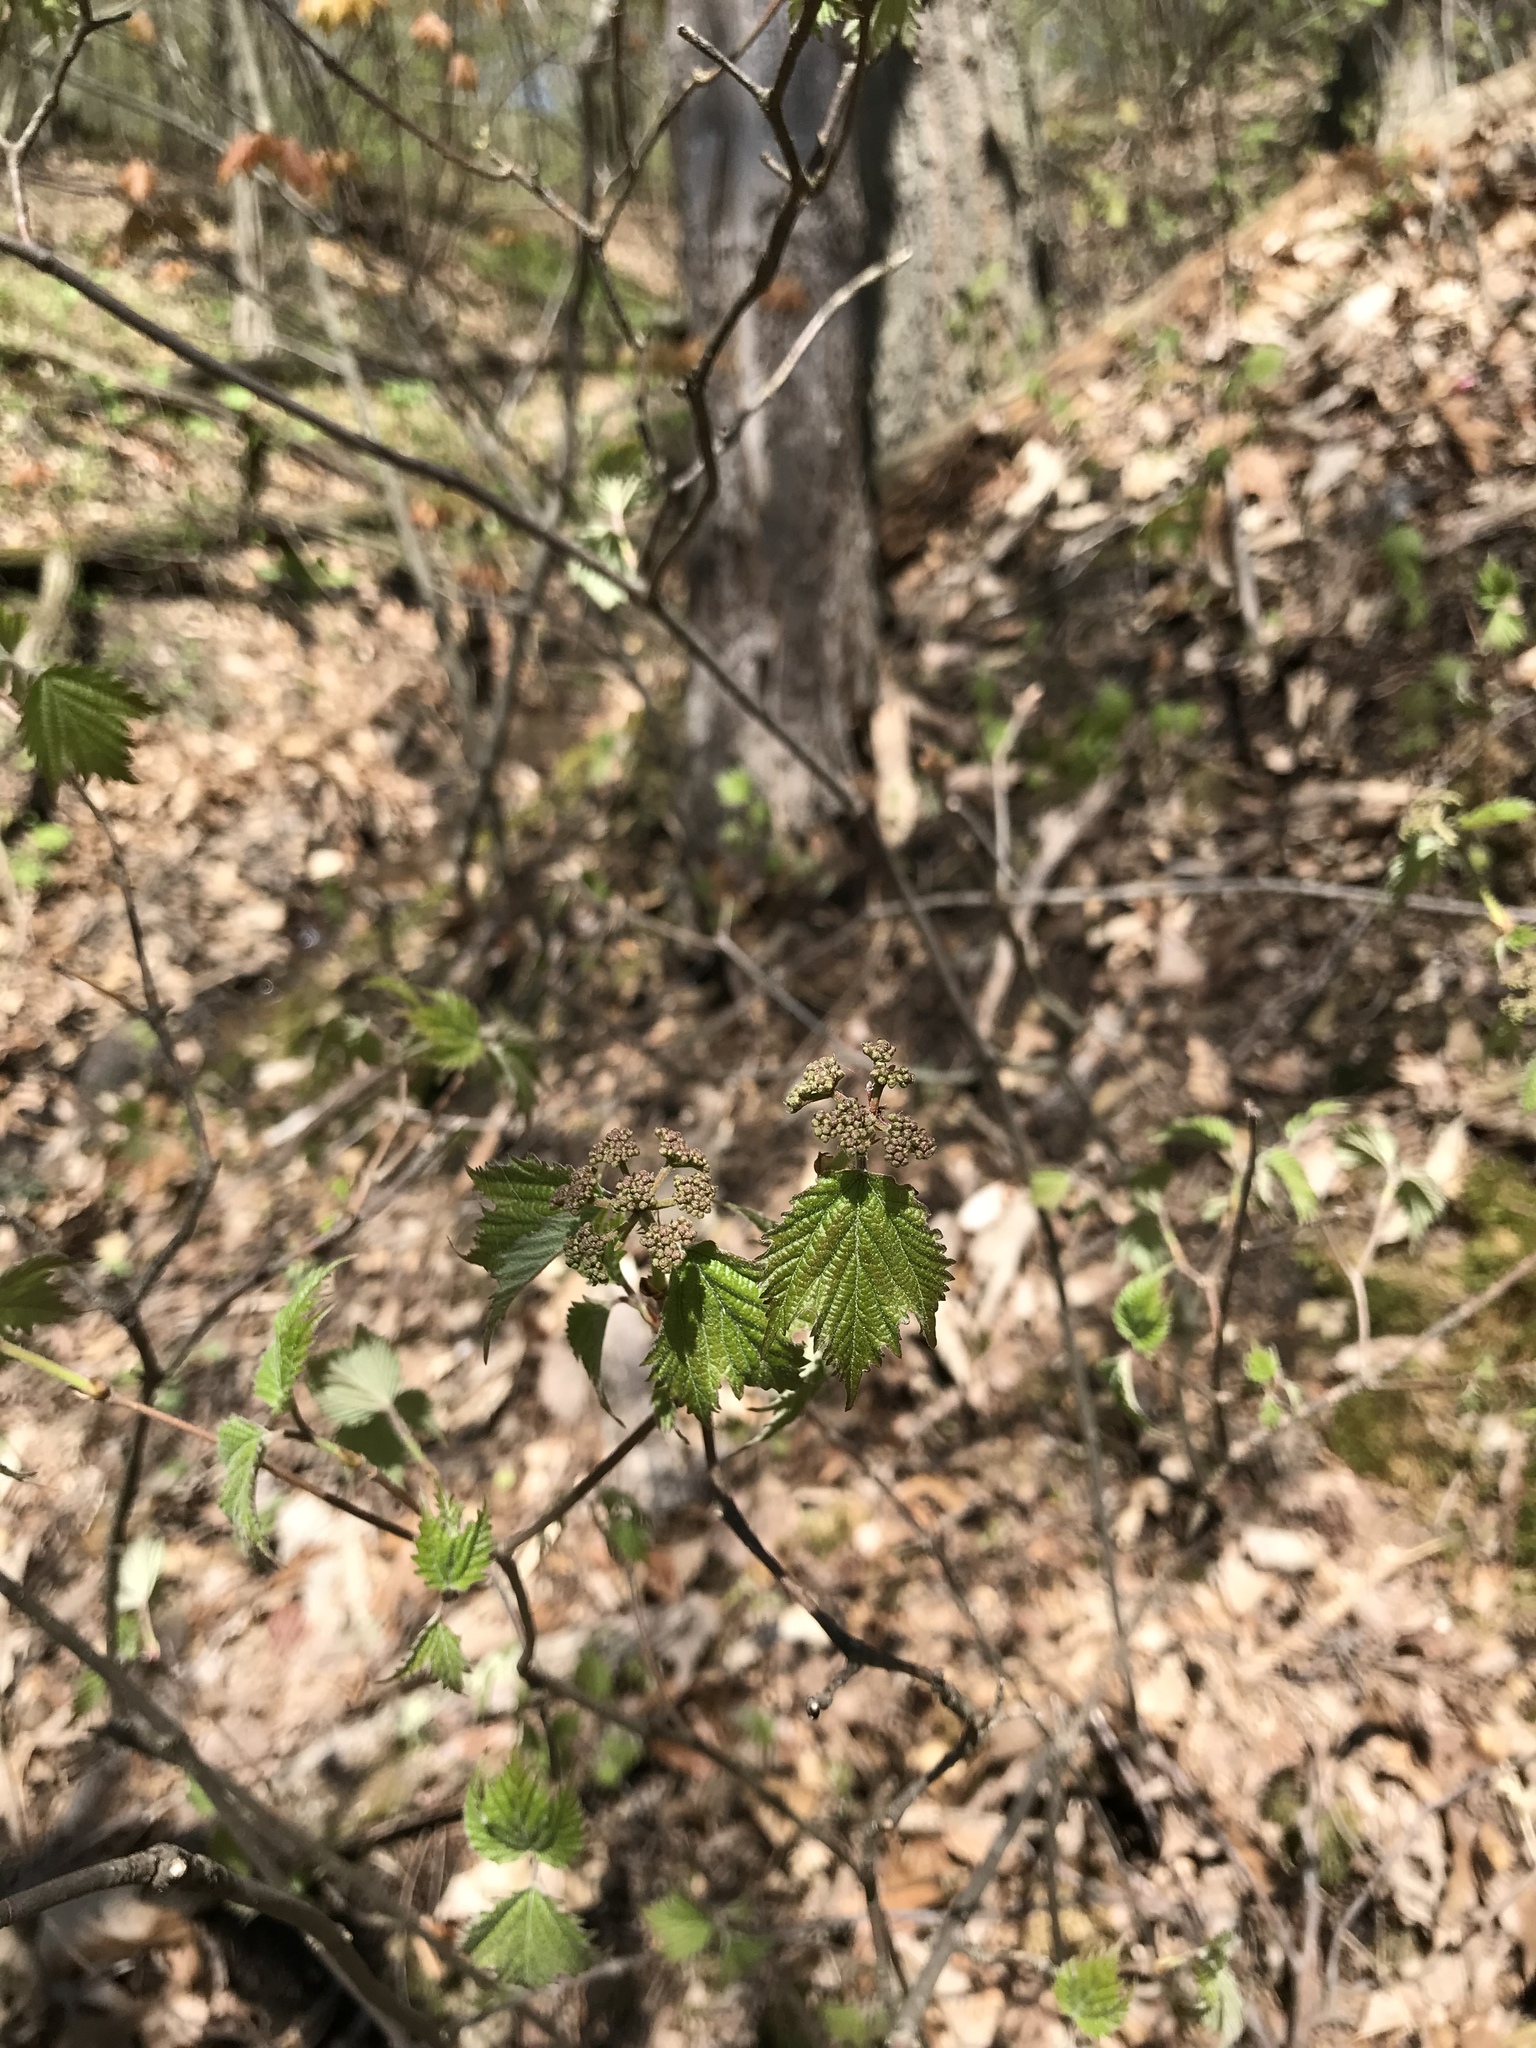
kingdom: Plantae
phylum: Tracheophyta
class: Magnoliopsida
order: Dipsacales
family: Viburnaceae
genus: Viburnum
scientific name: Viburnum acerifolium
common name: Dockmackie
